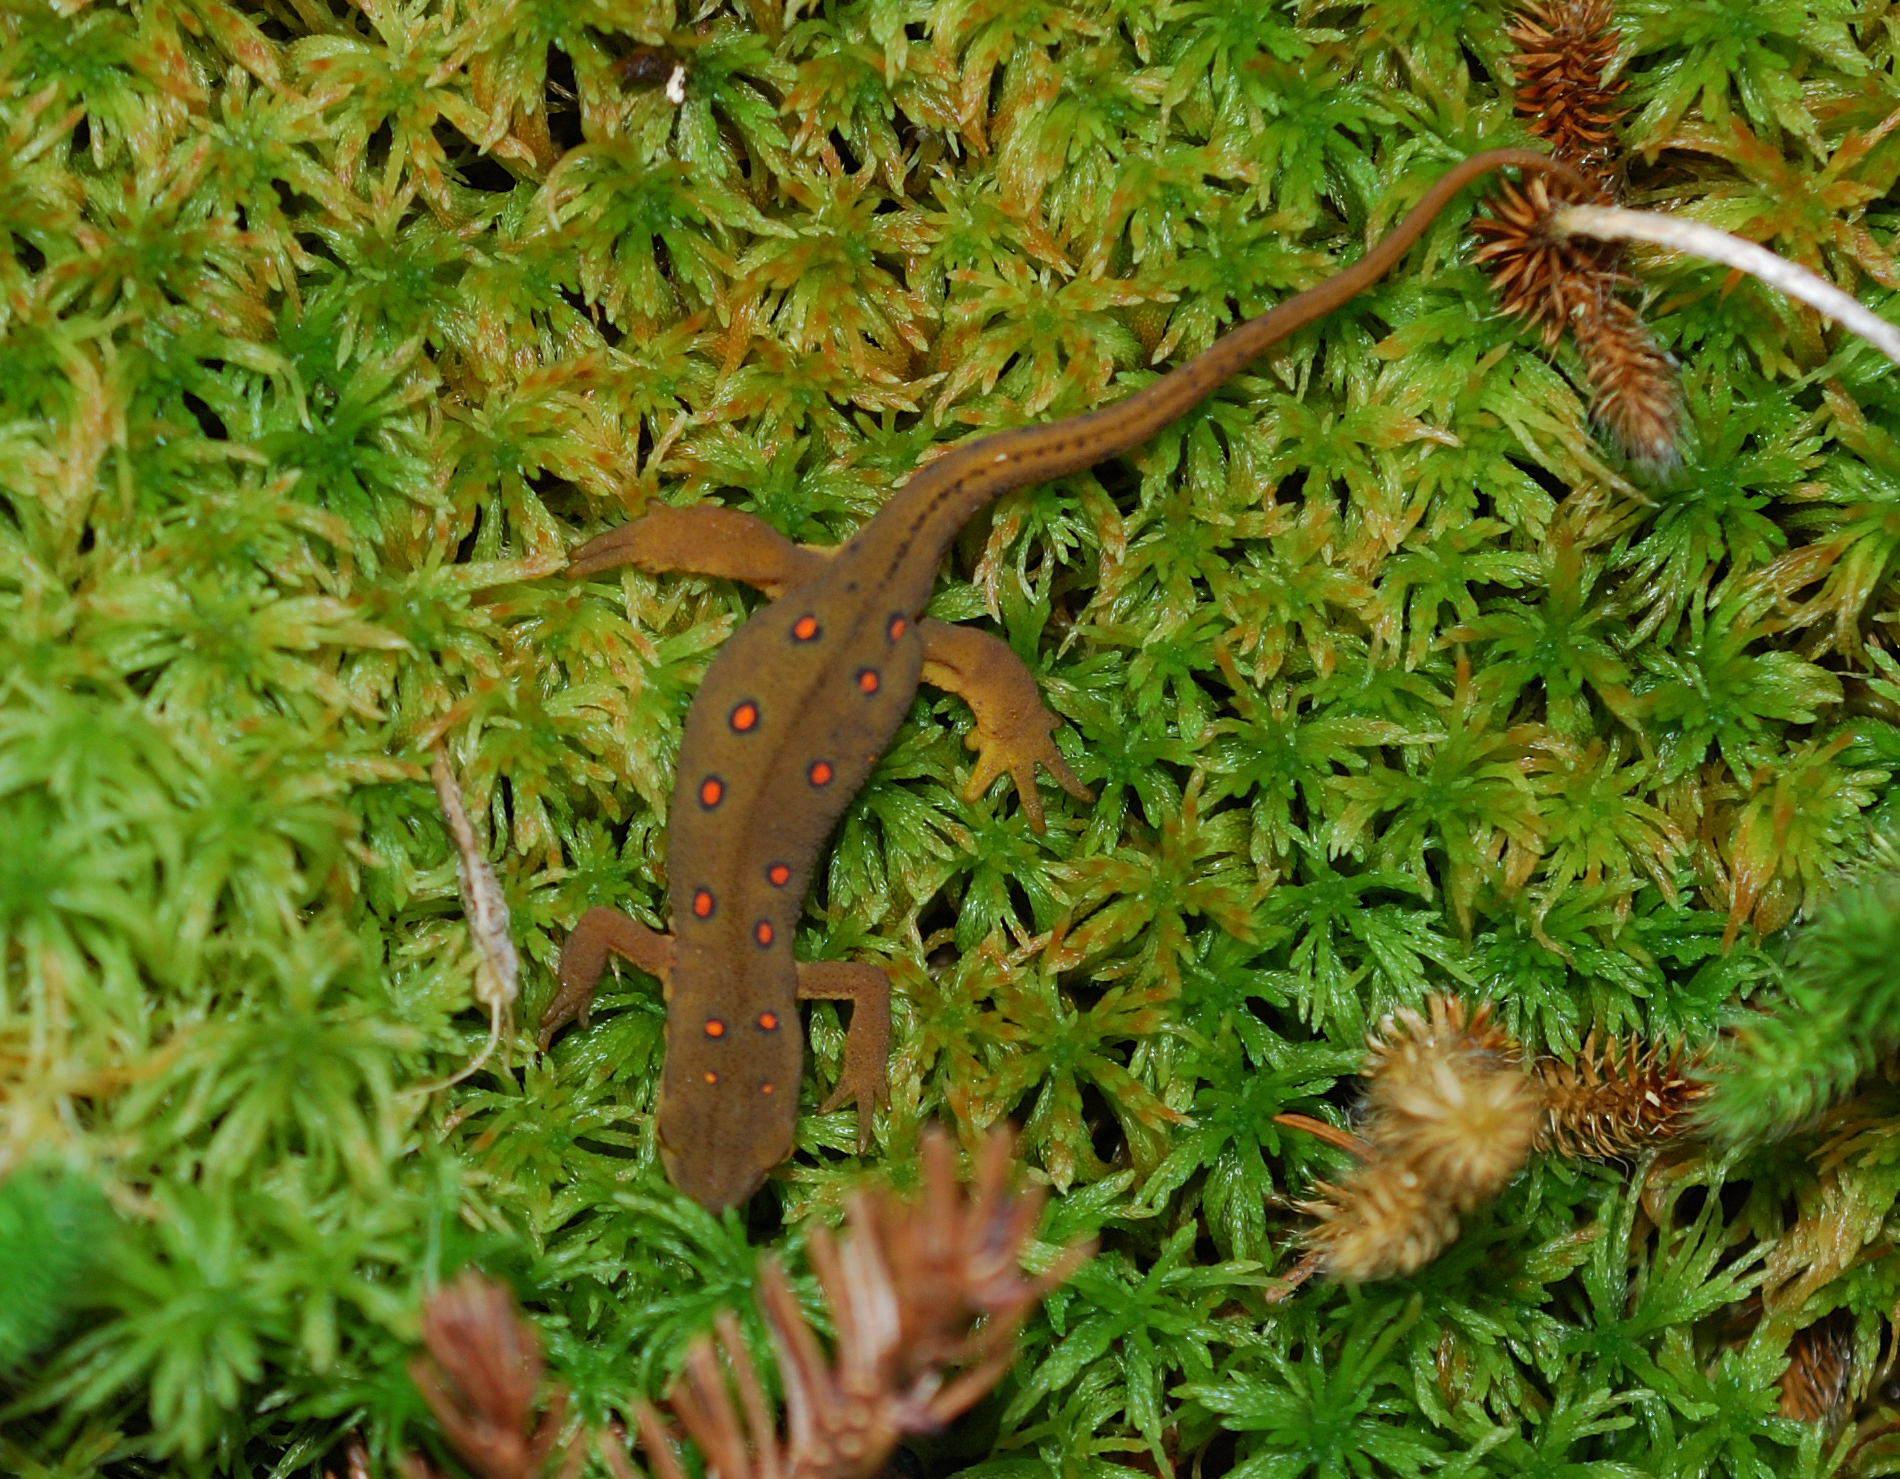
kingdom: Animalia
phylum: Chordata
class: Amphibia
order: Caudata
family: Salamandridae
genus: Notophthalmus
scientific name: Notophthalmus viridescens
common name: Eastern newt
